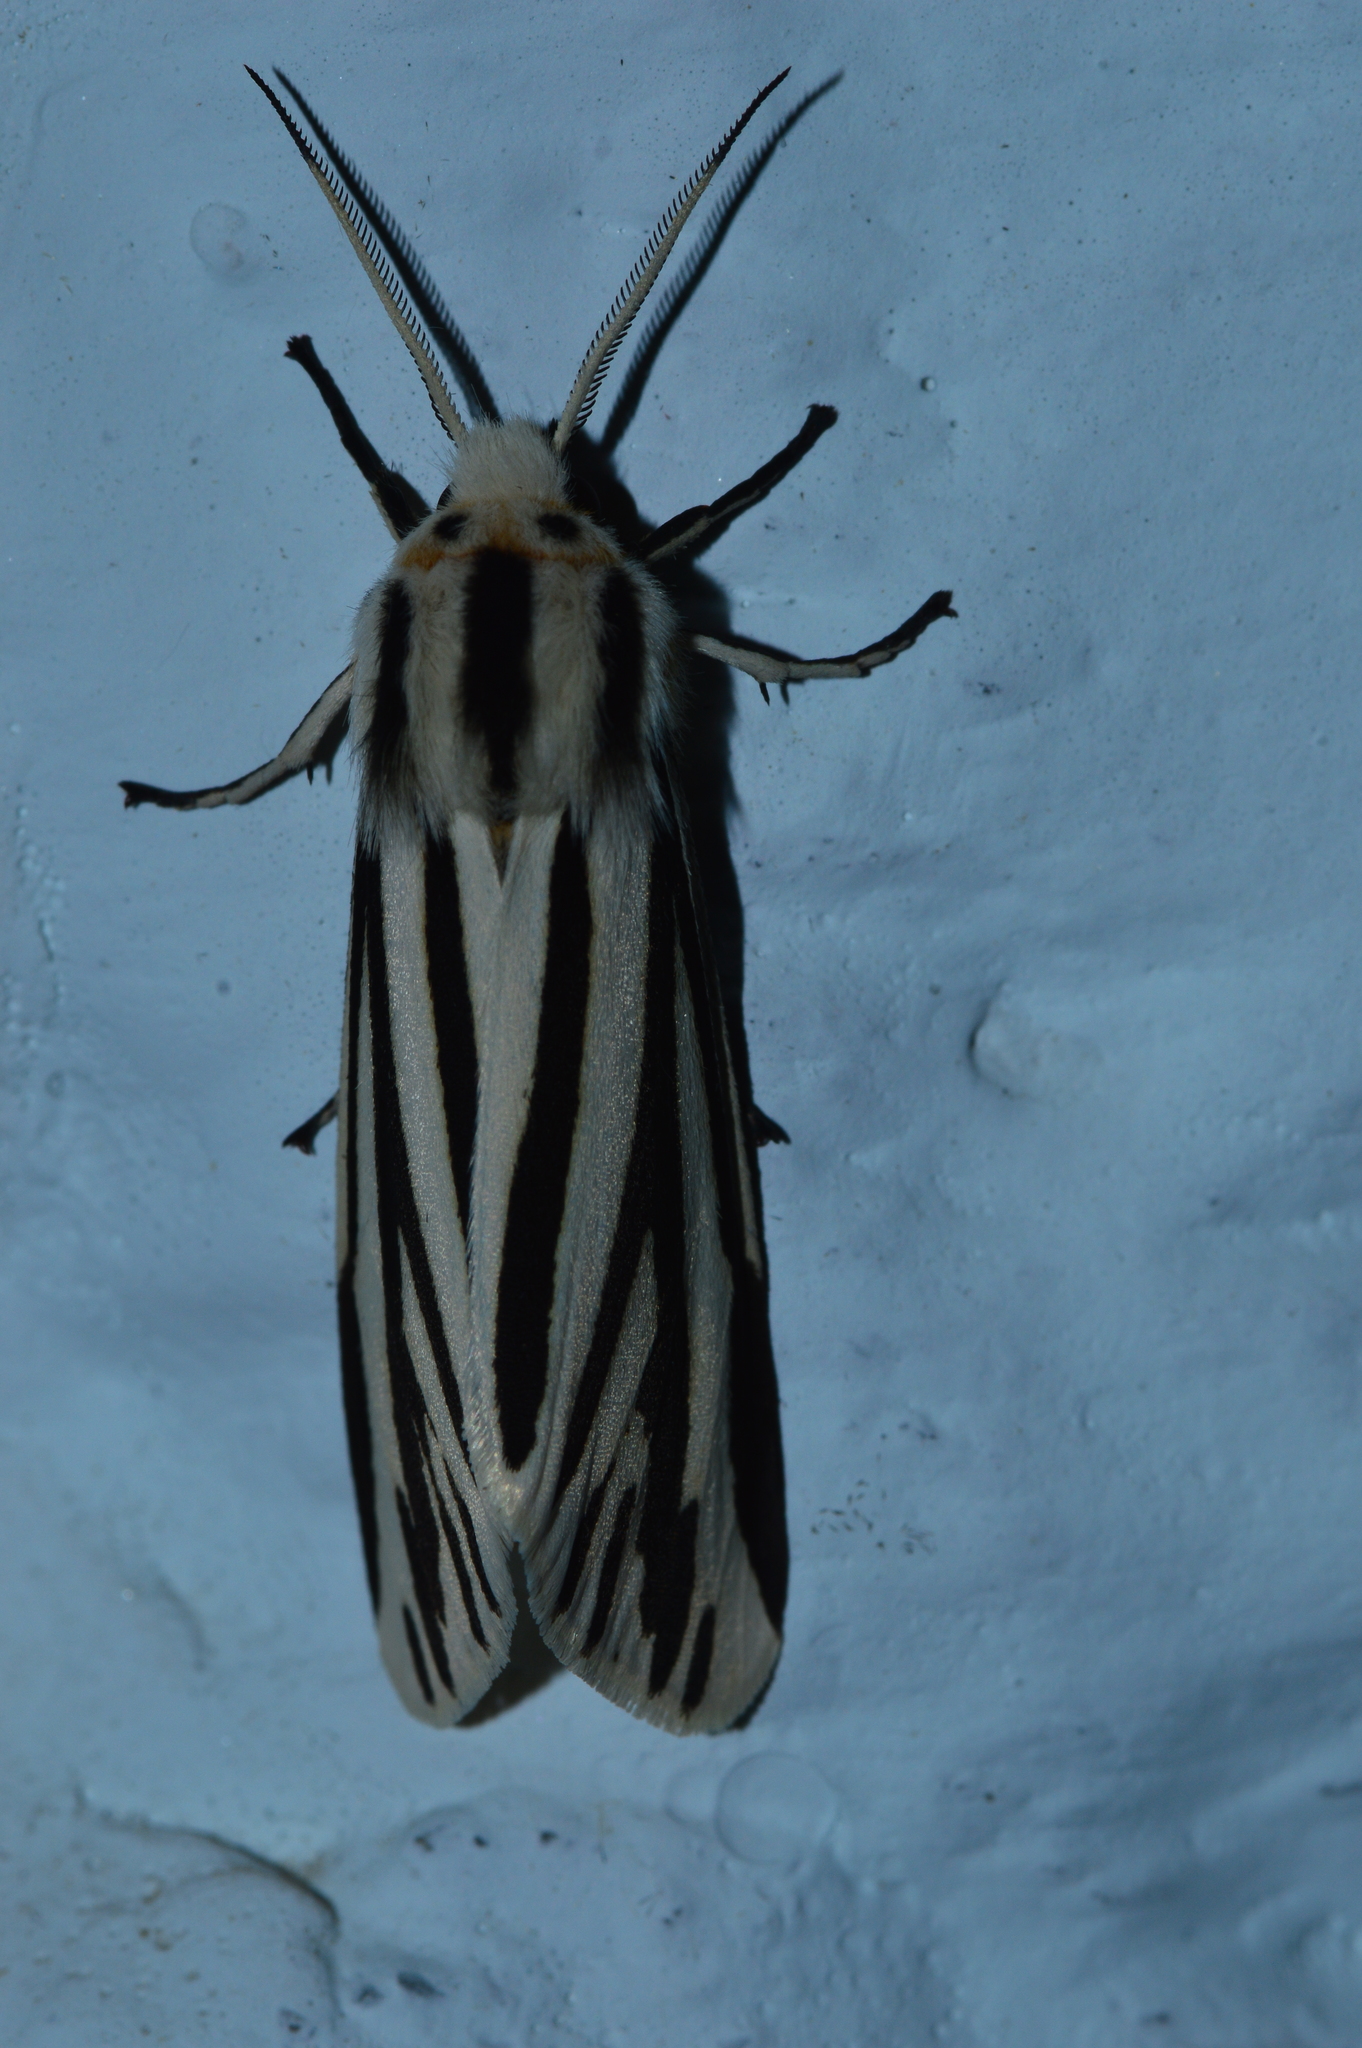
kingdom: Animalia
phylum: Arthropoda
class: Insecta
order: Lepidoptera
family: Erebidae
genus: Cladarctia
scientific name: Cladarctia quadriramosa
